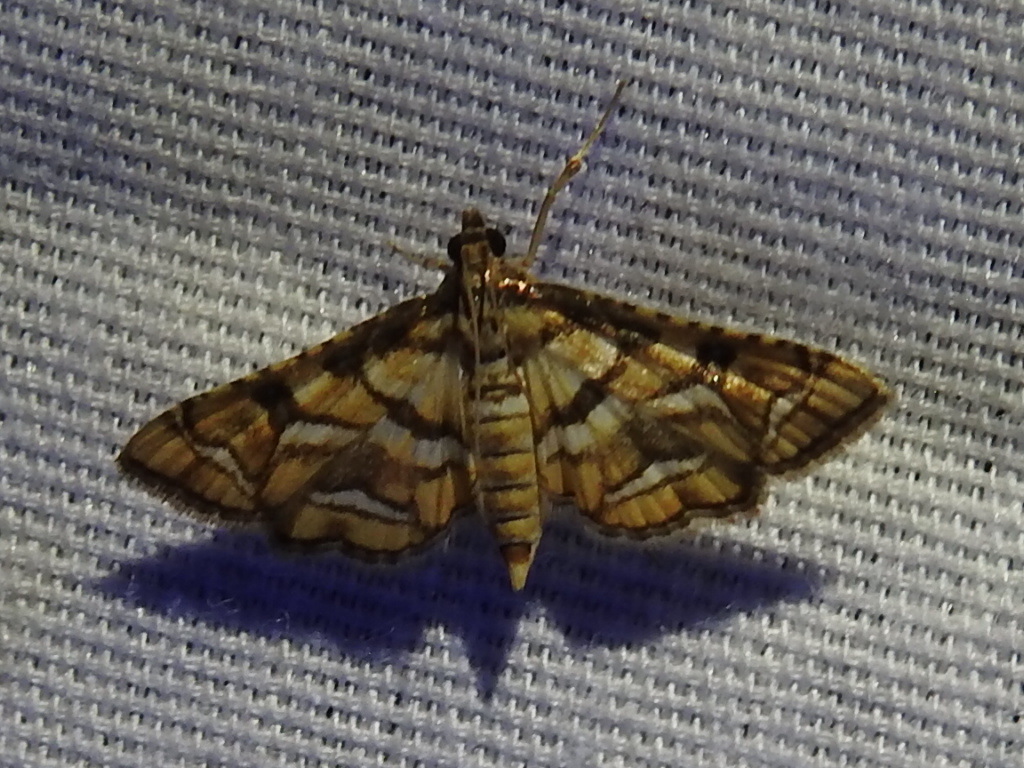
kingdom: Animalia
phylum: Arthropoda
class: Insecta
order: Lepidoptera
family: Crambidae
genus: Hileithia
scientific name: Hileithia magualis
